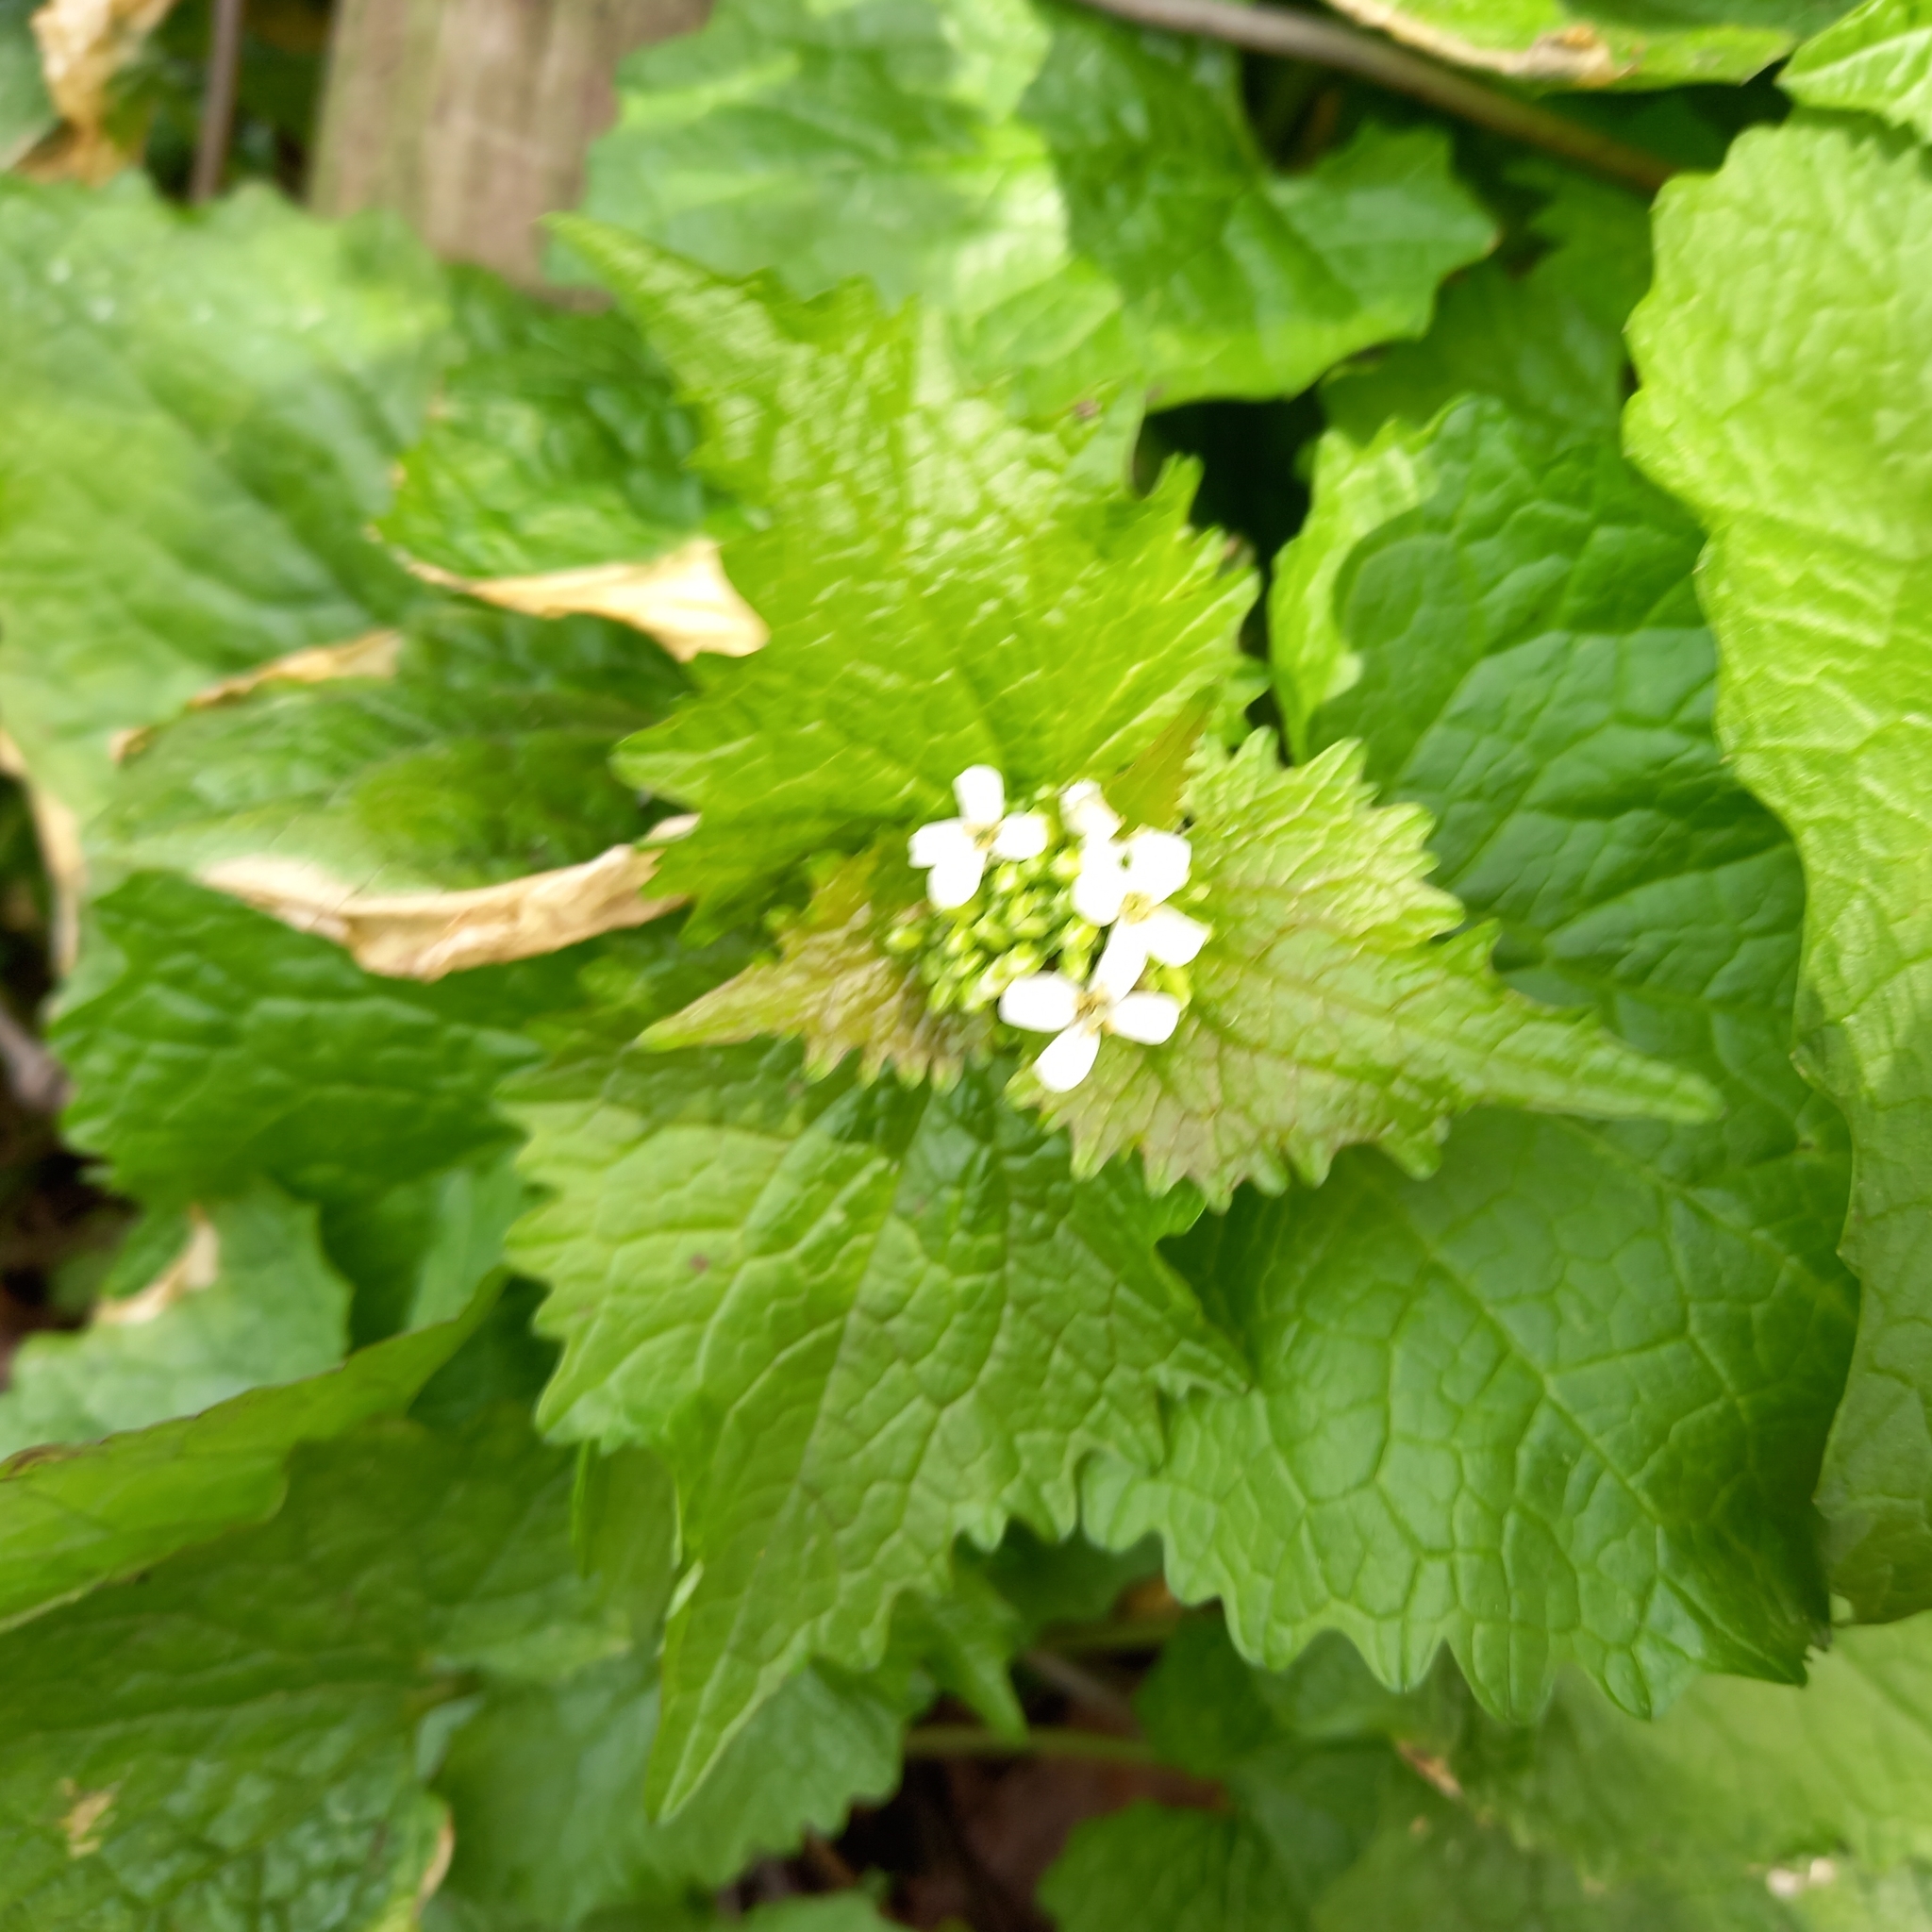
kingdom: Plantae
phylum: Tracheophyta
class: Magnoliopsida
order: Brassicales
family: Brassicaceae
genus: Alliaria
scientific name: Alliaria petiolata
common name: Garlic mustard
